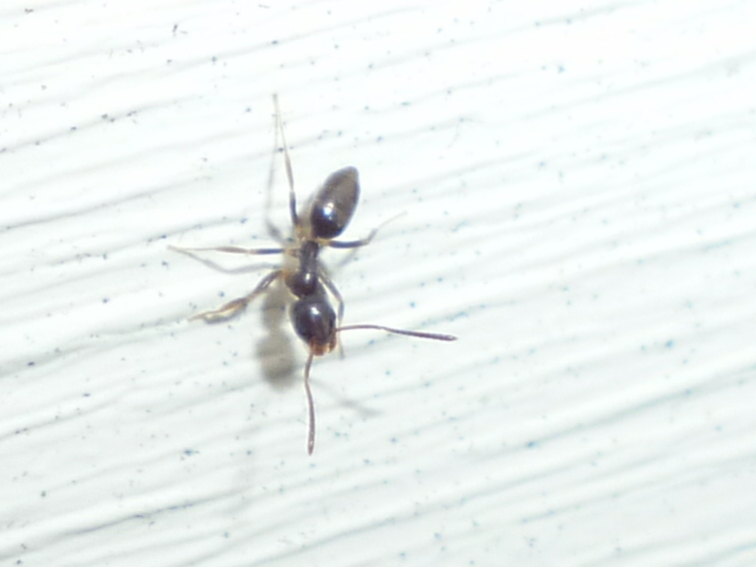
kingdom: Animalia
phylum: Arthropoda
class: Insecta
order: Hymenoptera
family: Formicidae
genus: Tapinoma
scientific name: Tapinoma sessile
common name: Odorous house ant
